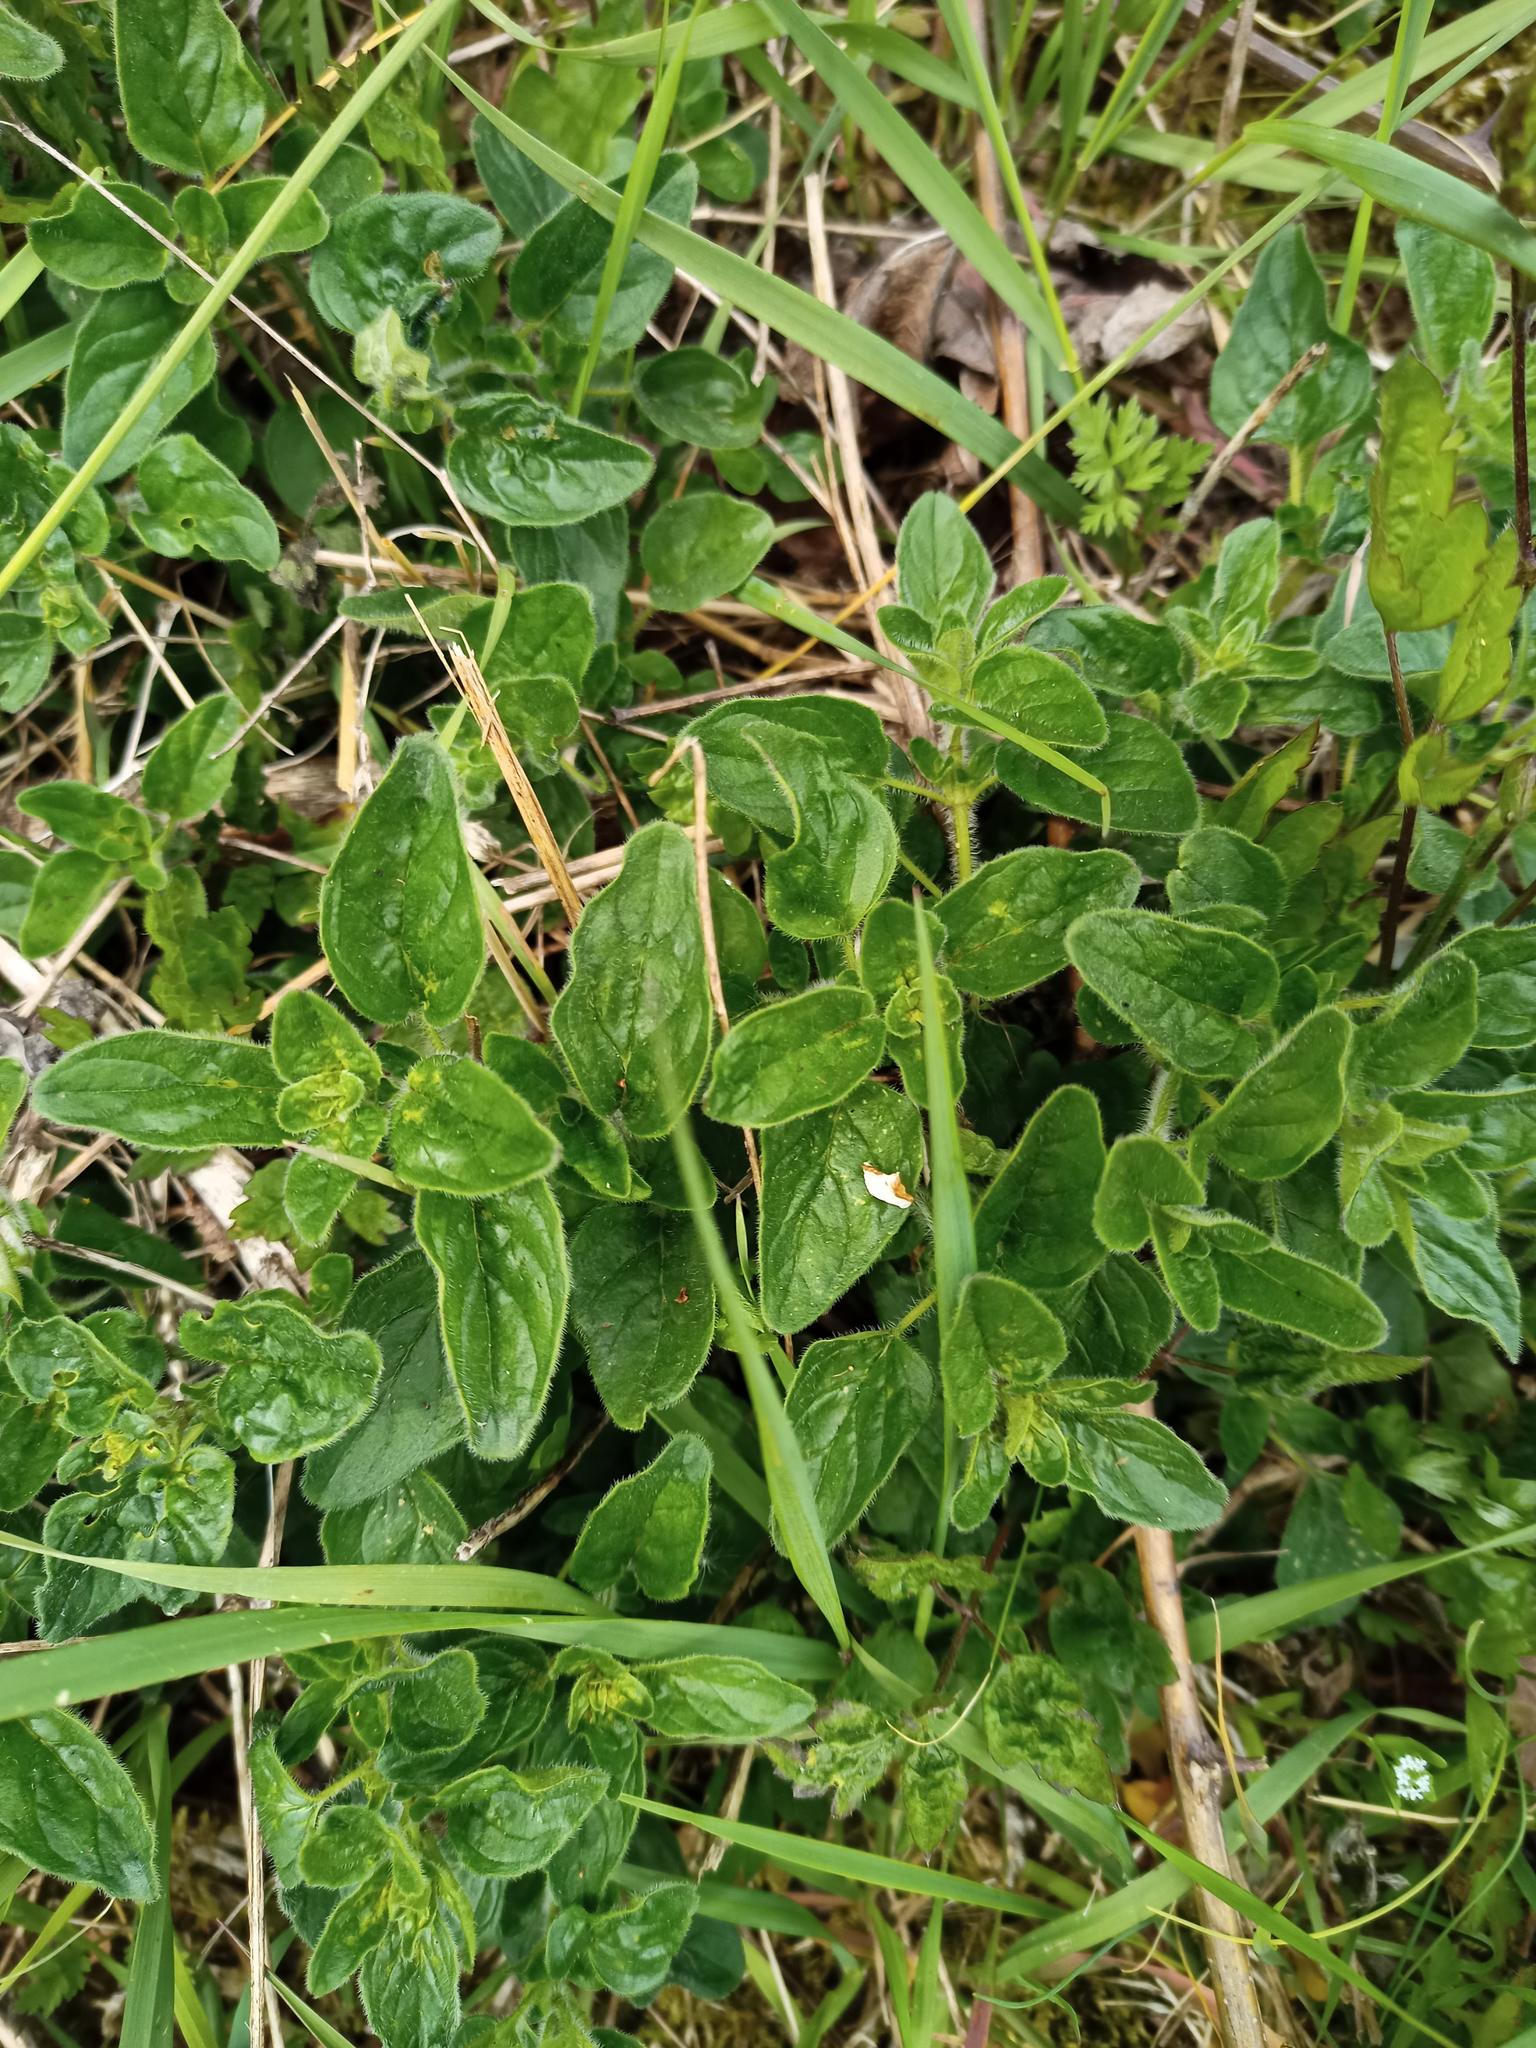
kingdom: Plantae
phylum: Tracheophyta
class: Magnoliopsida
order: Lamiales
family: Lamiaceae
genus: Origanum
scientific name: Origanum vulgare
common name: Wild marjoram
